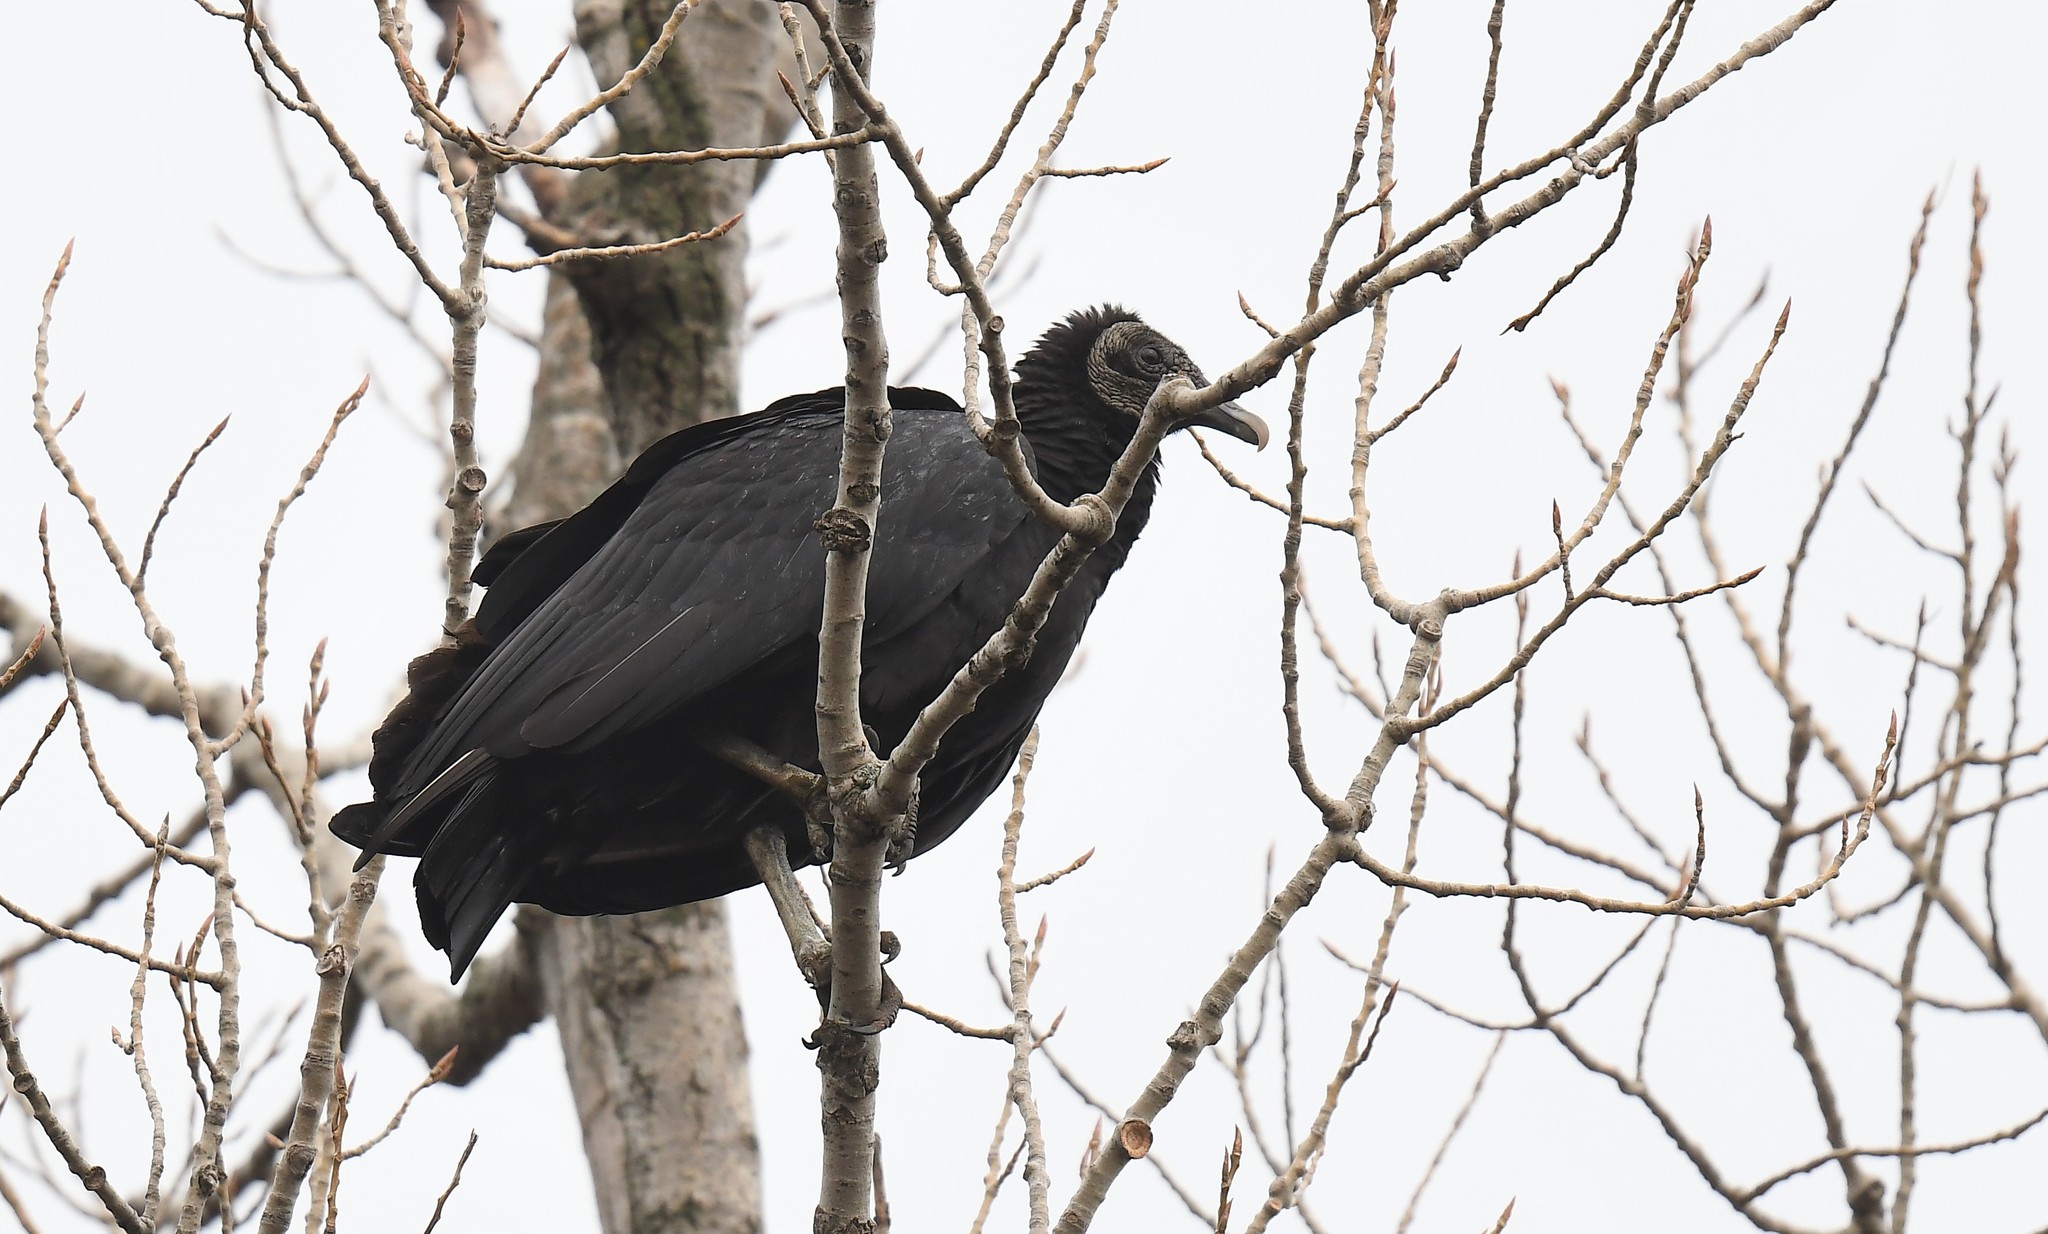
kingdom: Animalia
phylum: Chordata
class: Aves
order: Accipitriformes
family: Cathartidae
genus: Coragyps
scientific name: Coragyps atratus
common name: Black vulture
